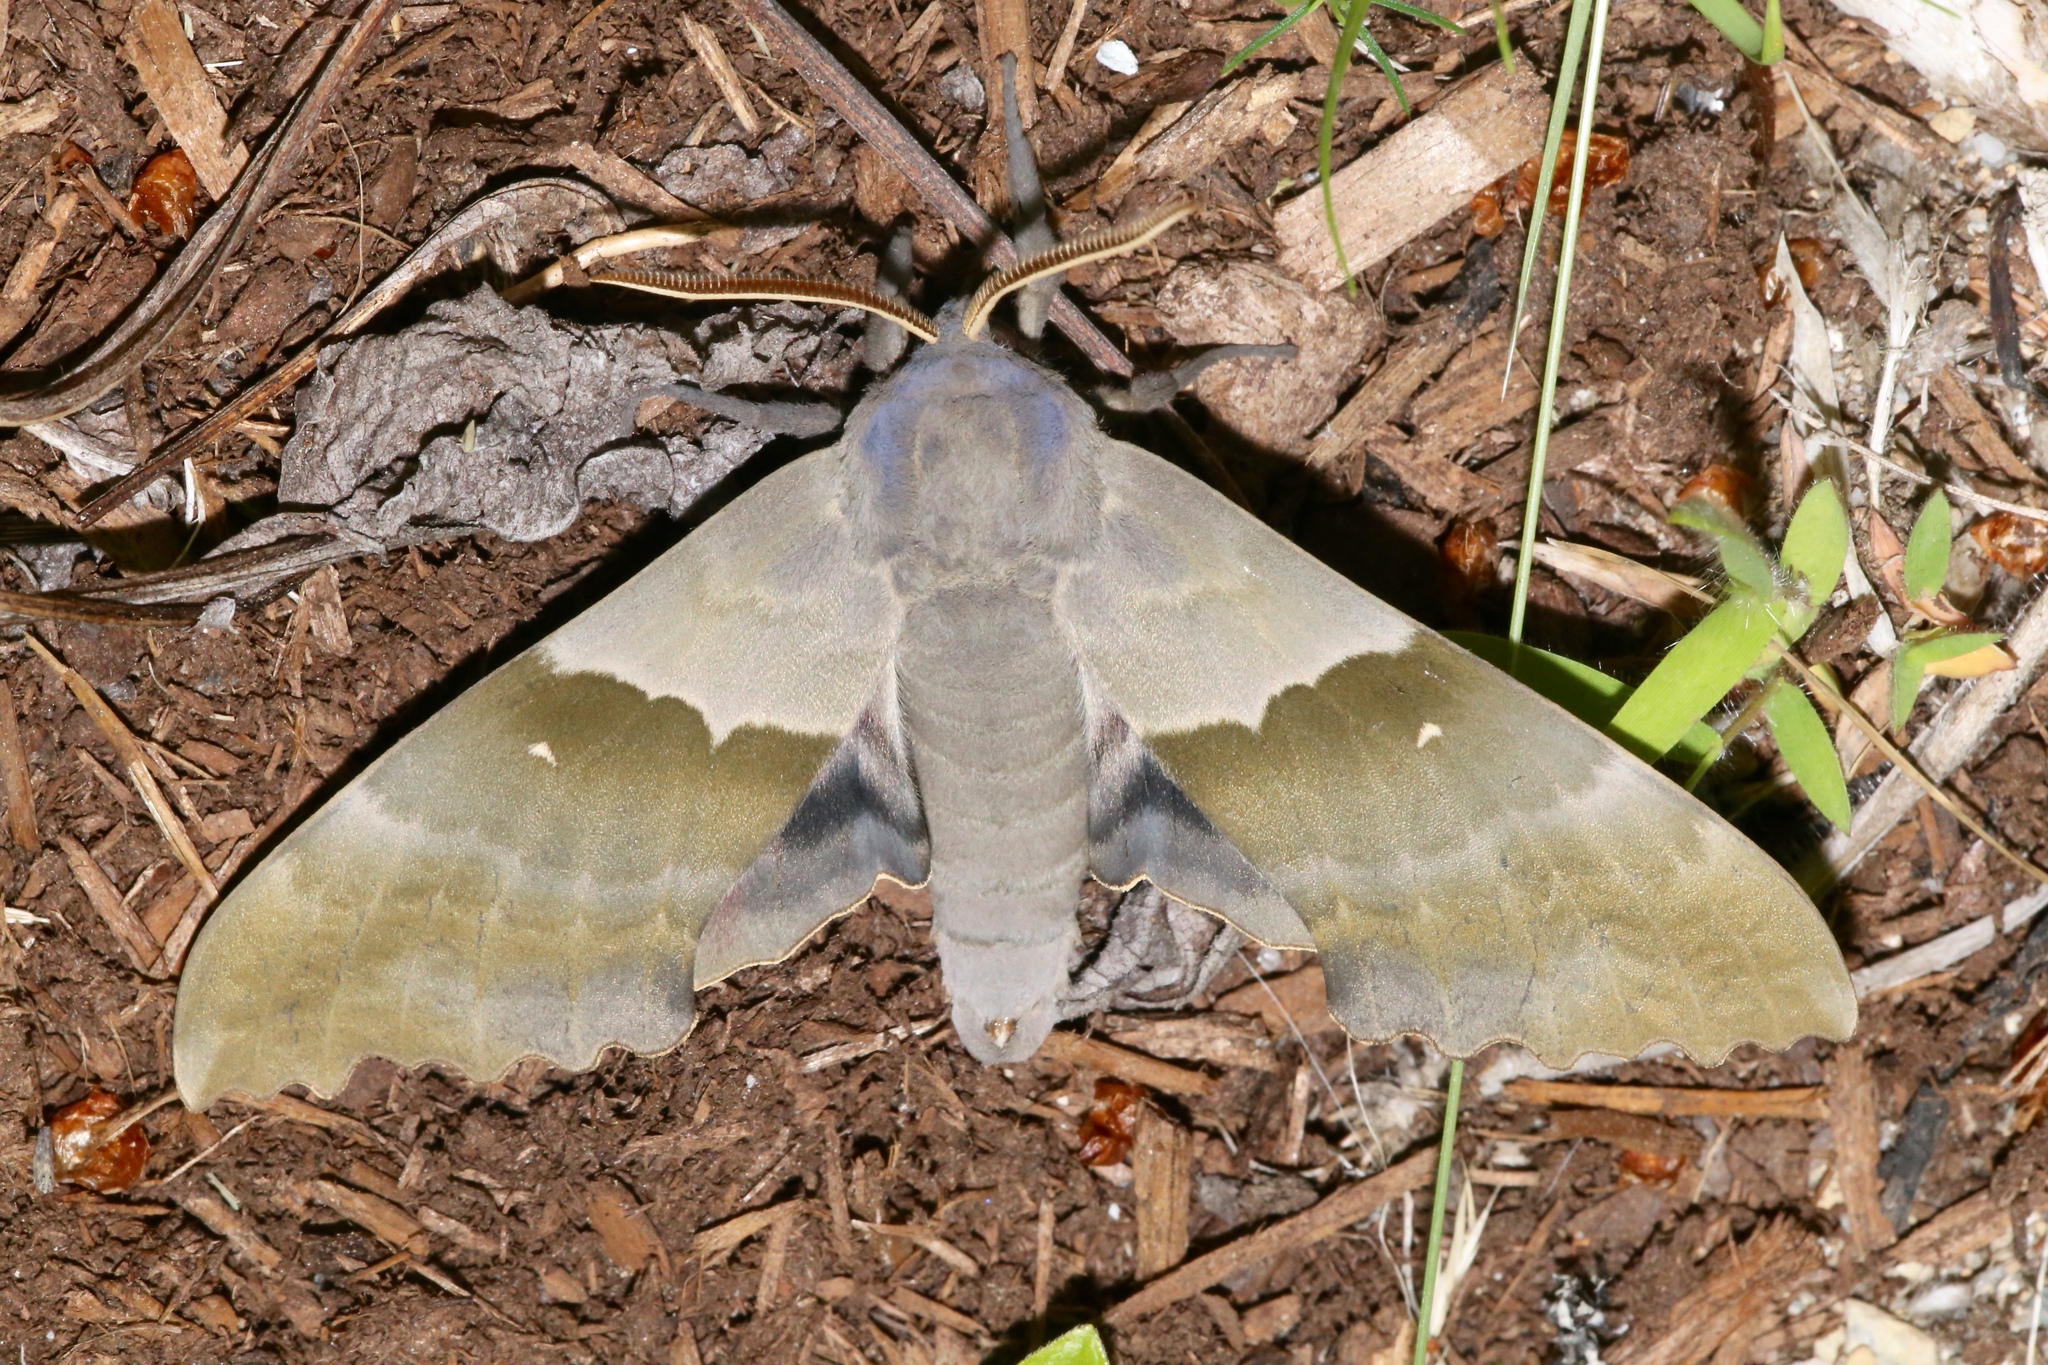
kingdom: Animalia
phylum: Arthropoda
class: Insecta
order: Lepidoptera
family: Sphingidae
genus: Pachysphinx
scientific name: Pachysphinx modesta
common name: Big poplar sphinx
